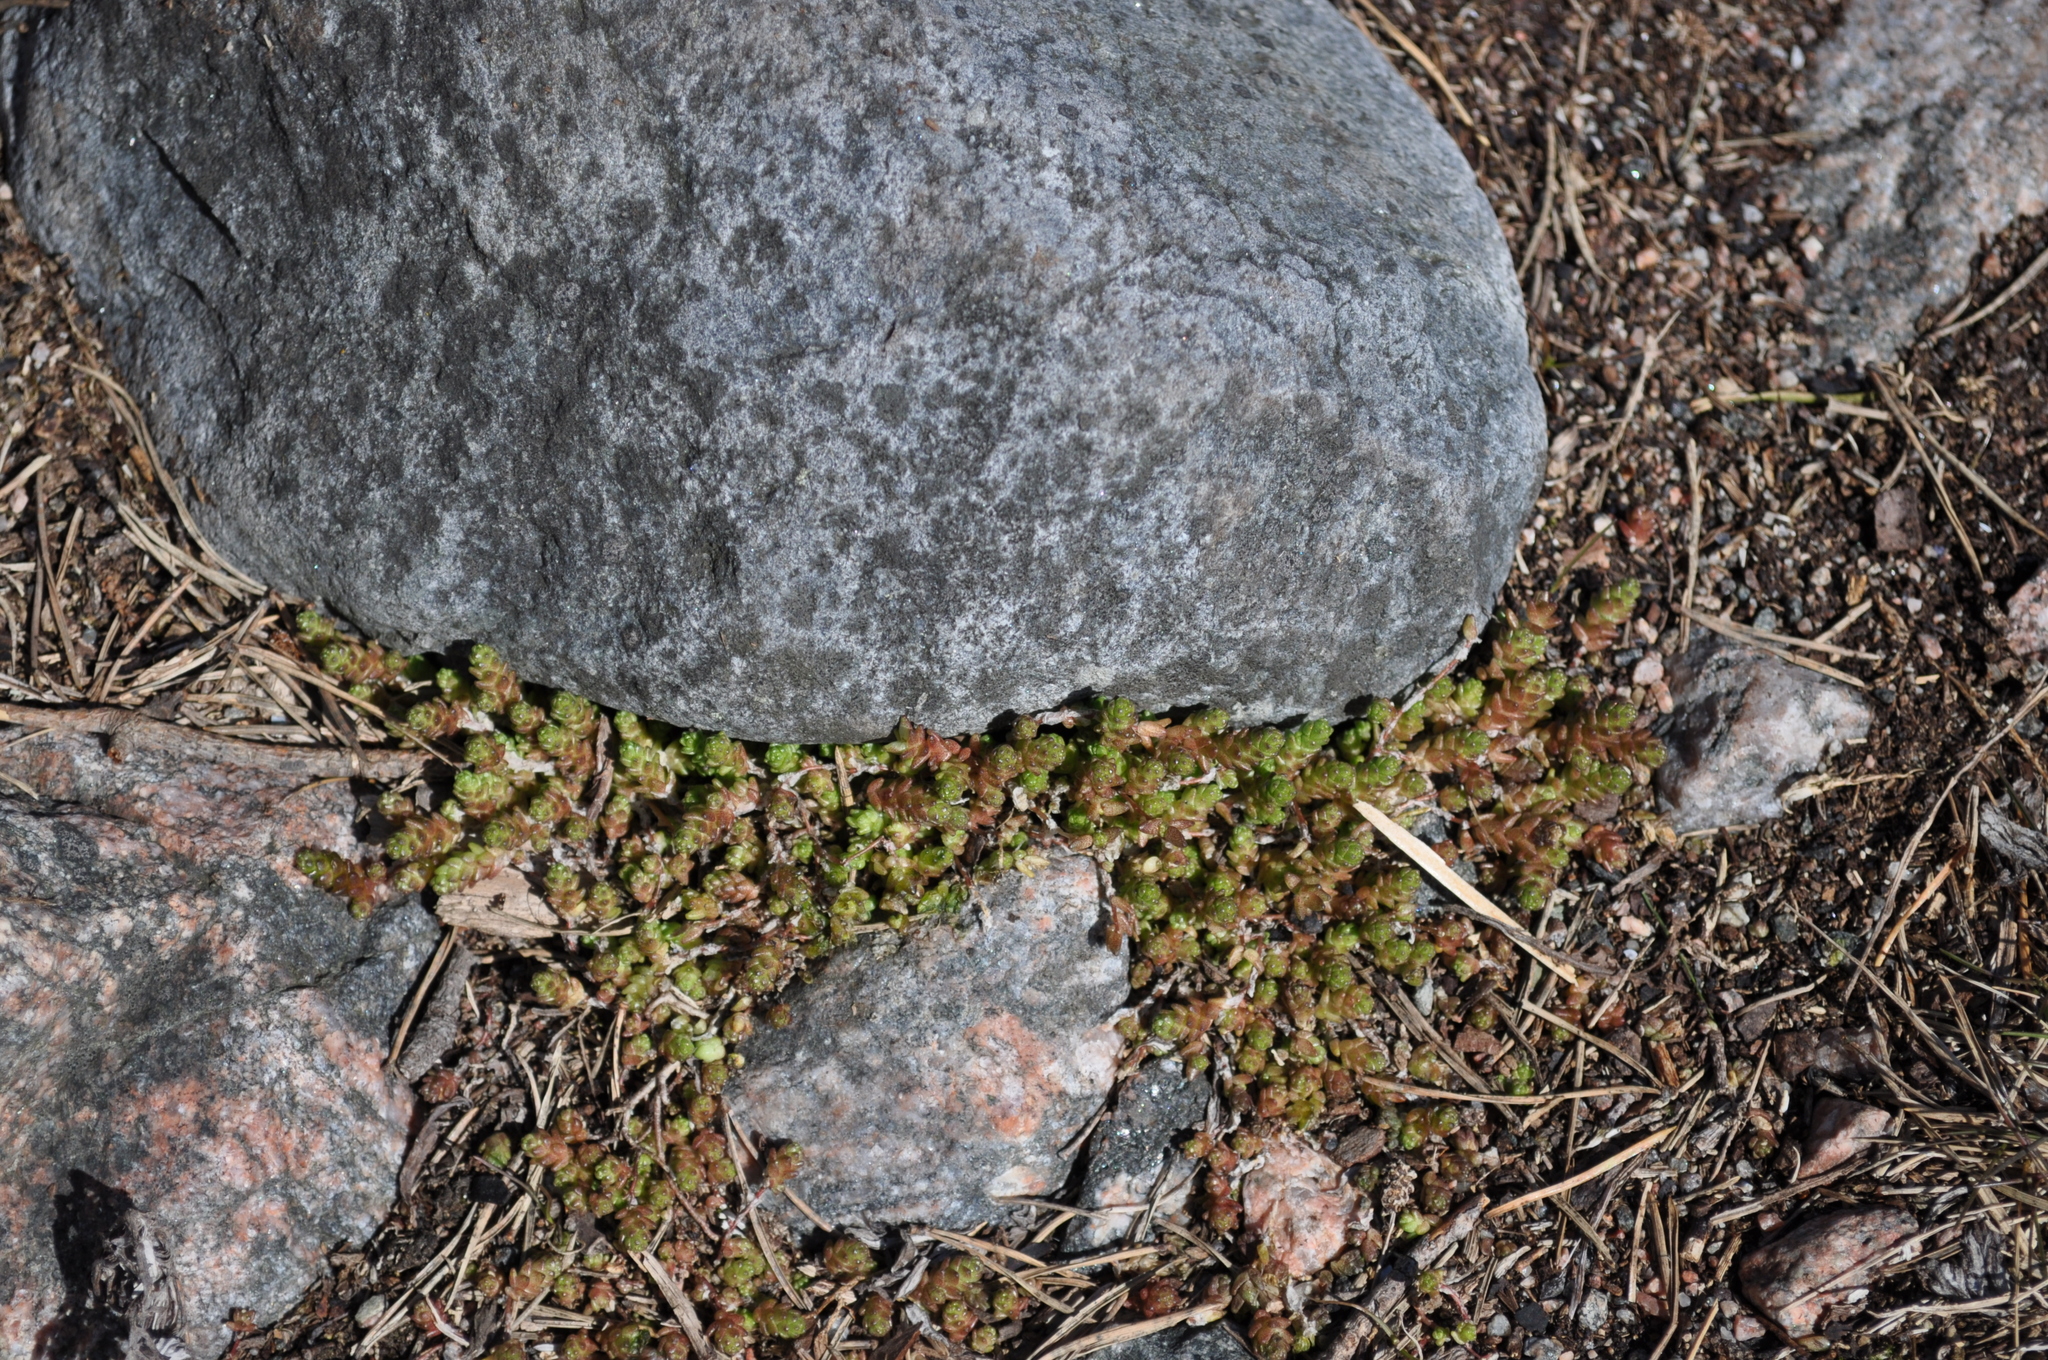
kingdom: Plantae
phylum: Tracheophyta
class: Magnoliopsida
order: Saxifragales
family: Crassulaceae
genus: Sedum
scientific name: Sedum acre
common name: Biting stonecrop
